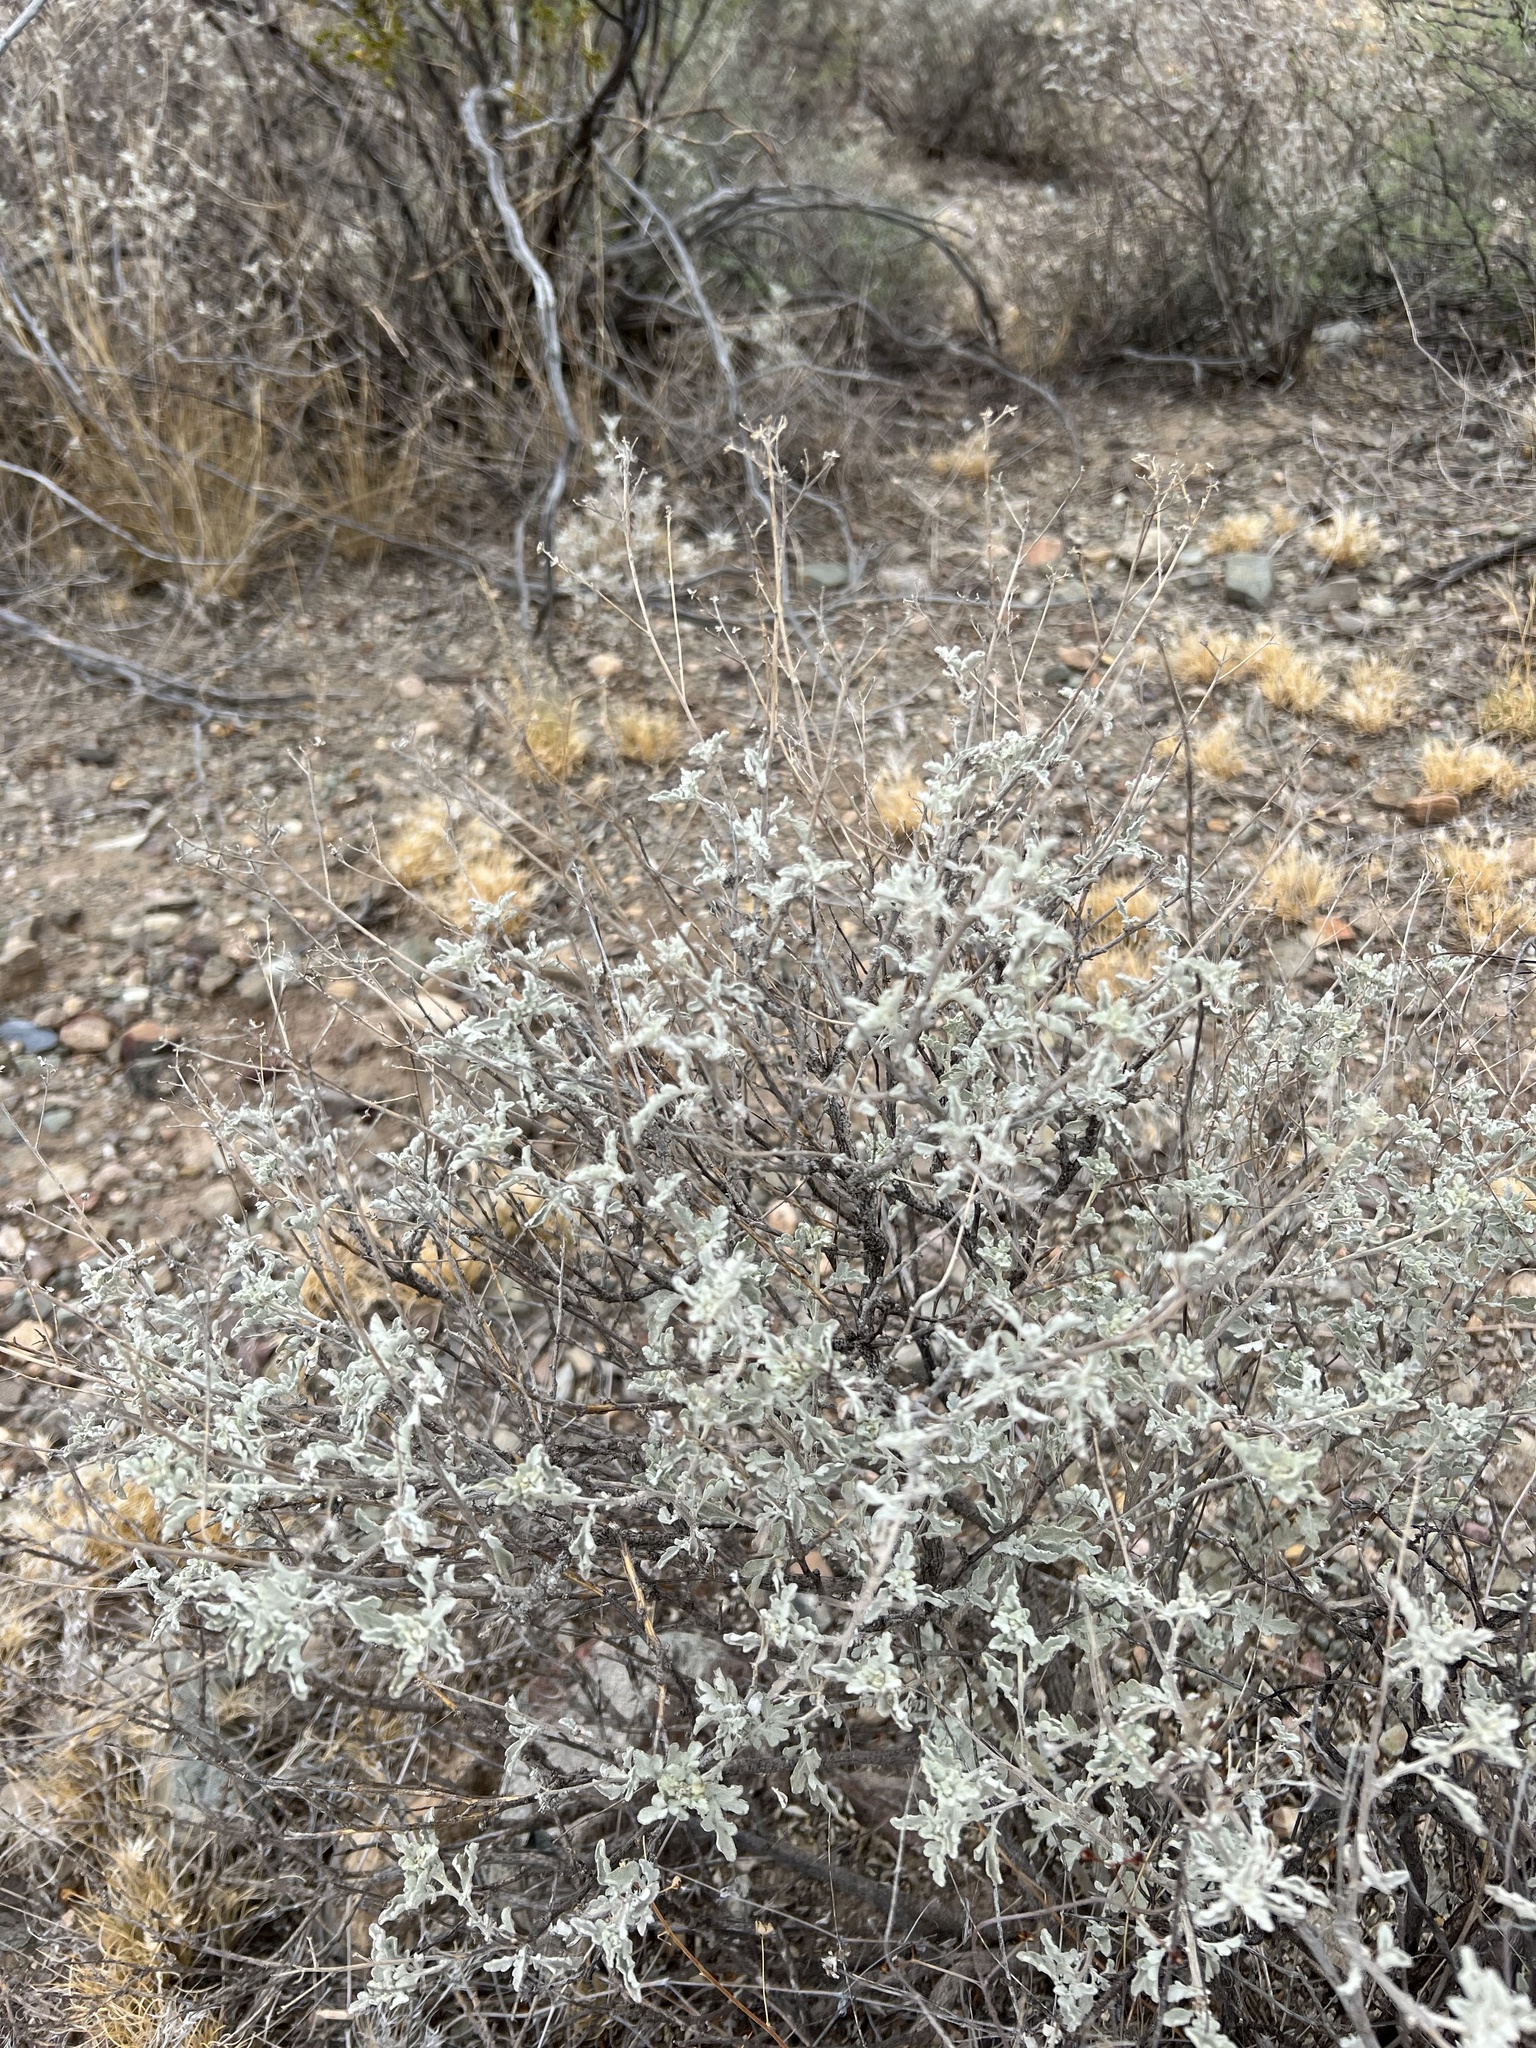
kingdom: Plantae
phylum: Tracheophyta
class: Magnoliopsida
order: Asterales
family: Asteraceae
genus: Parthenium
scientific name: Parthenium incanum
